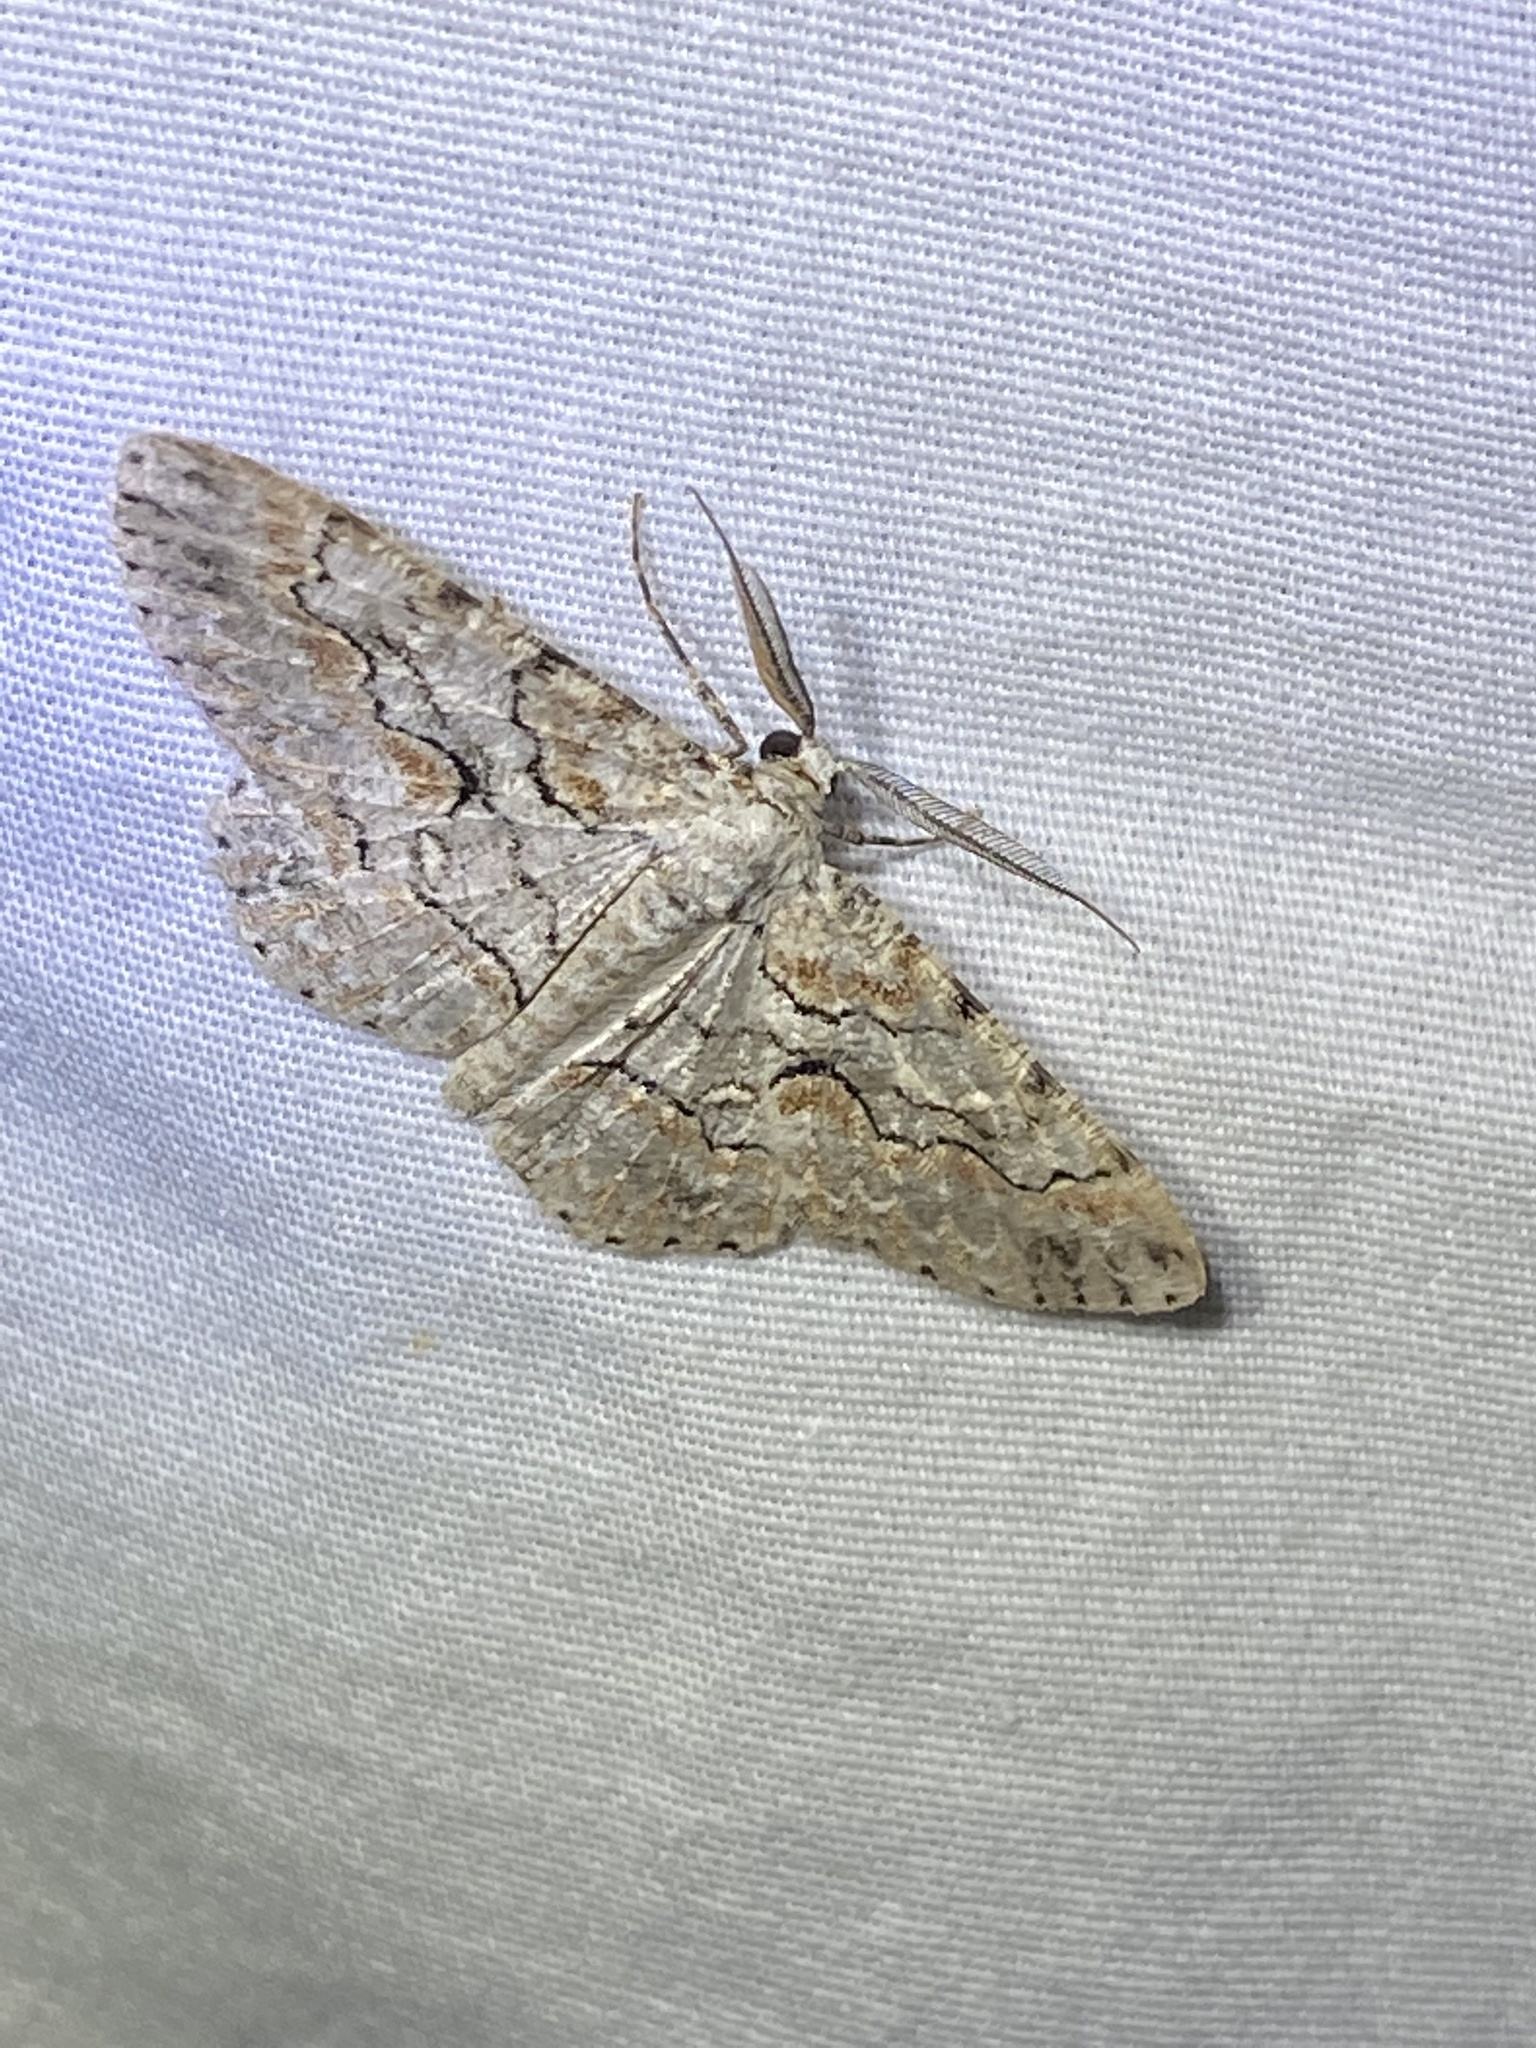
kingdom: Animalia
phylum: Arthropoda
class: Insecta
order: Lepidoptera
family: Geometridae
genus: Iridopsis
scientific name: Iridopsis defectaria
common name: Brown-shaded gray
